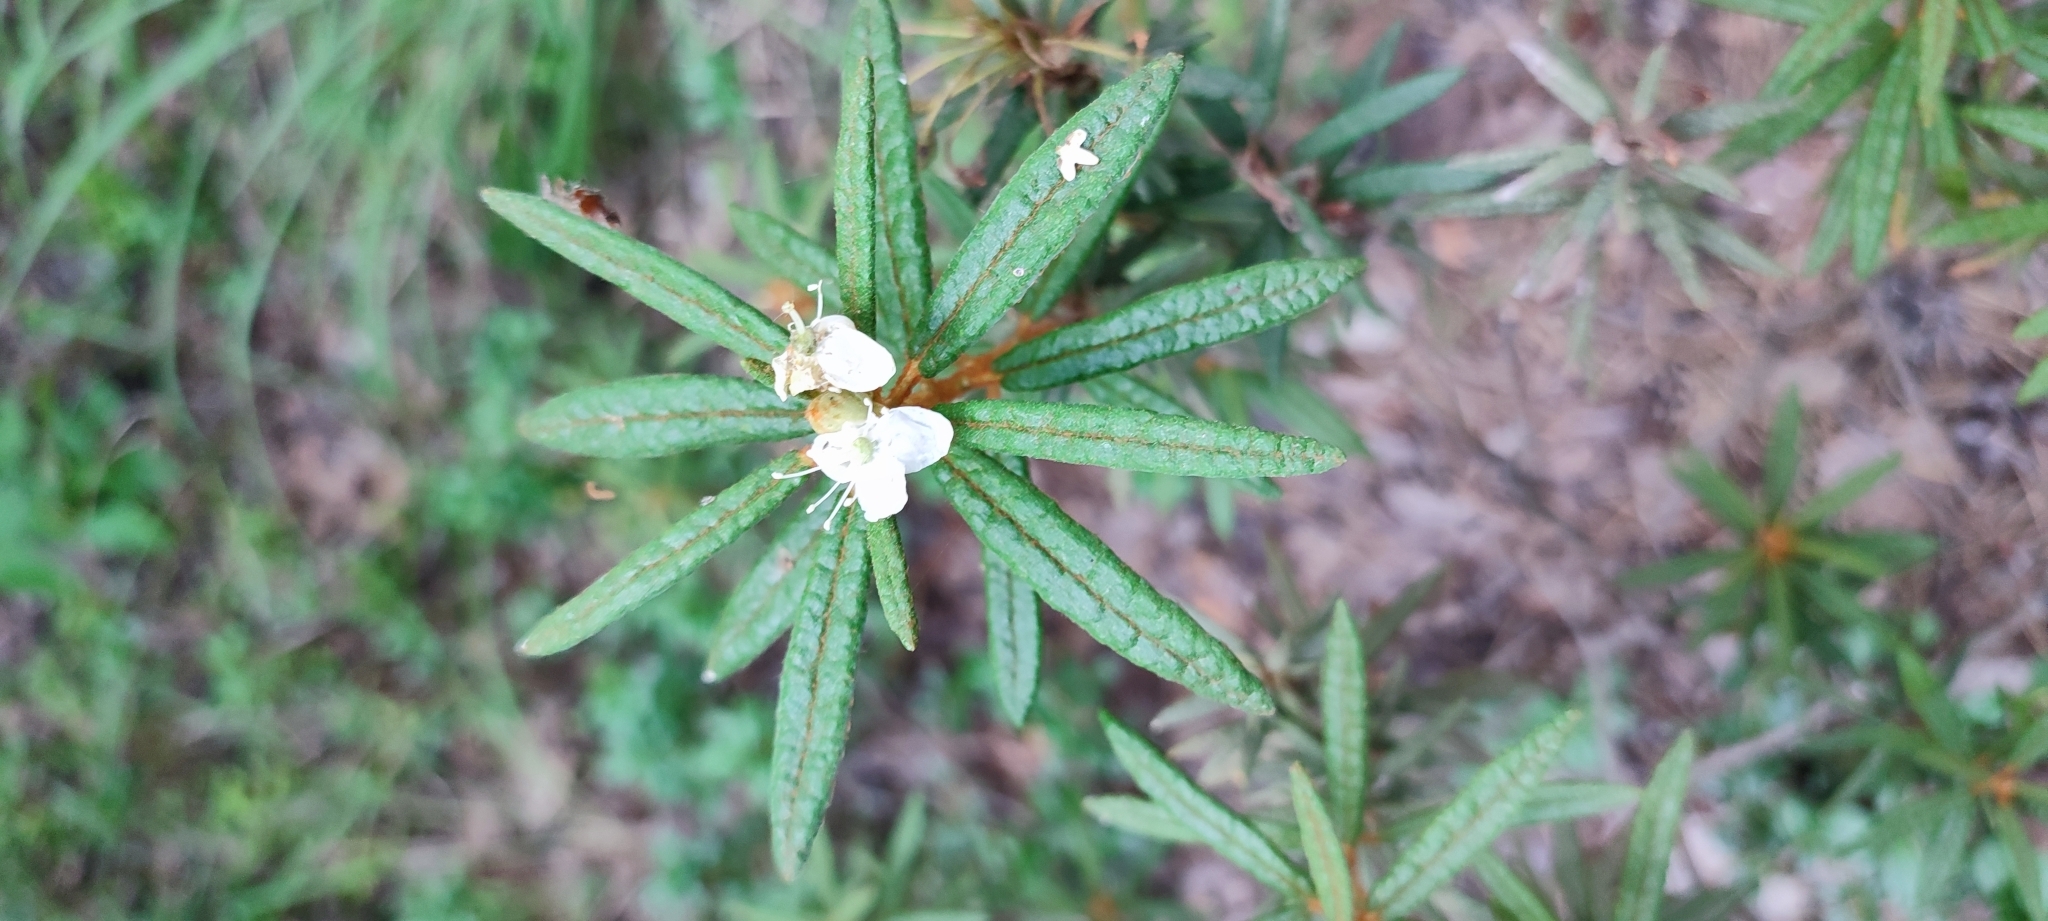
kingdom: Plantae
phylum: Tracheophyta
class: Magnoliopsida
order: Ericales
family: Ericaceae
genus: Rhododendron
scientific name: Rhododendron tomentosum
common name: Marsh labrador tea
